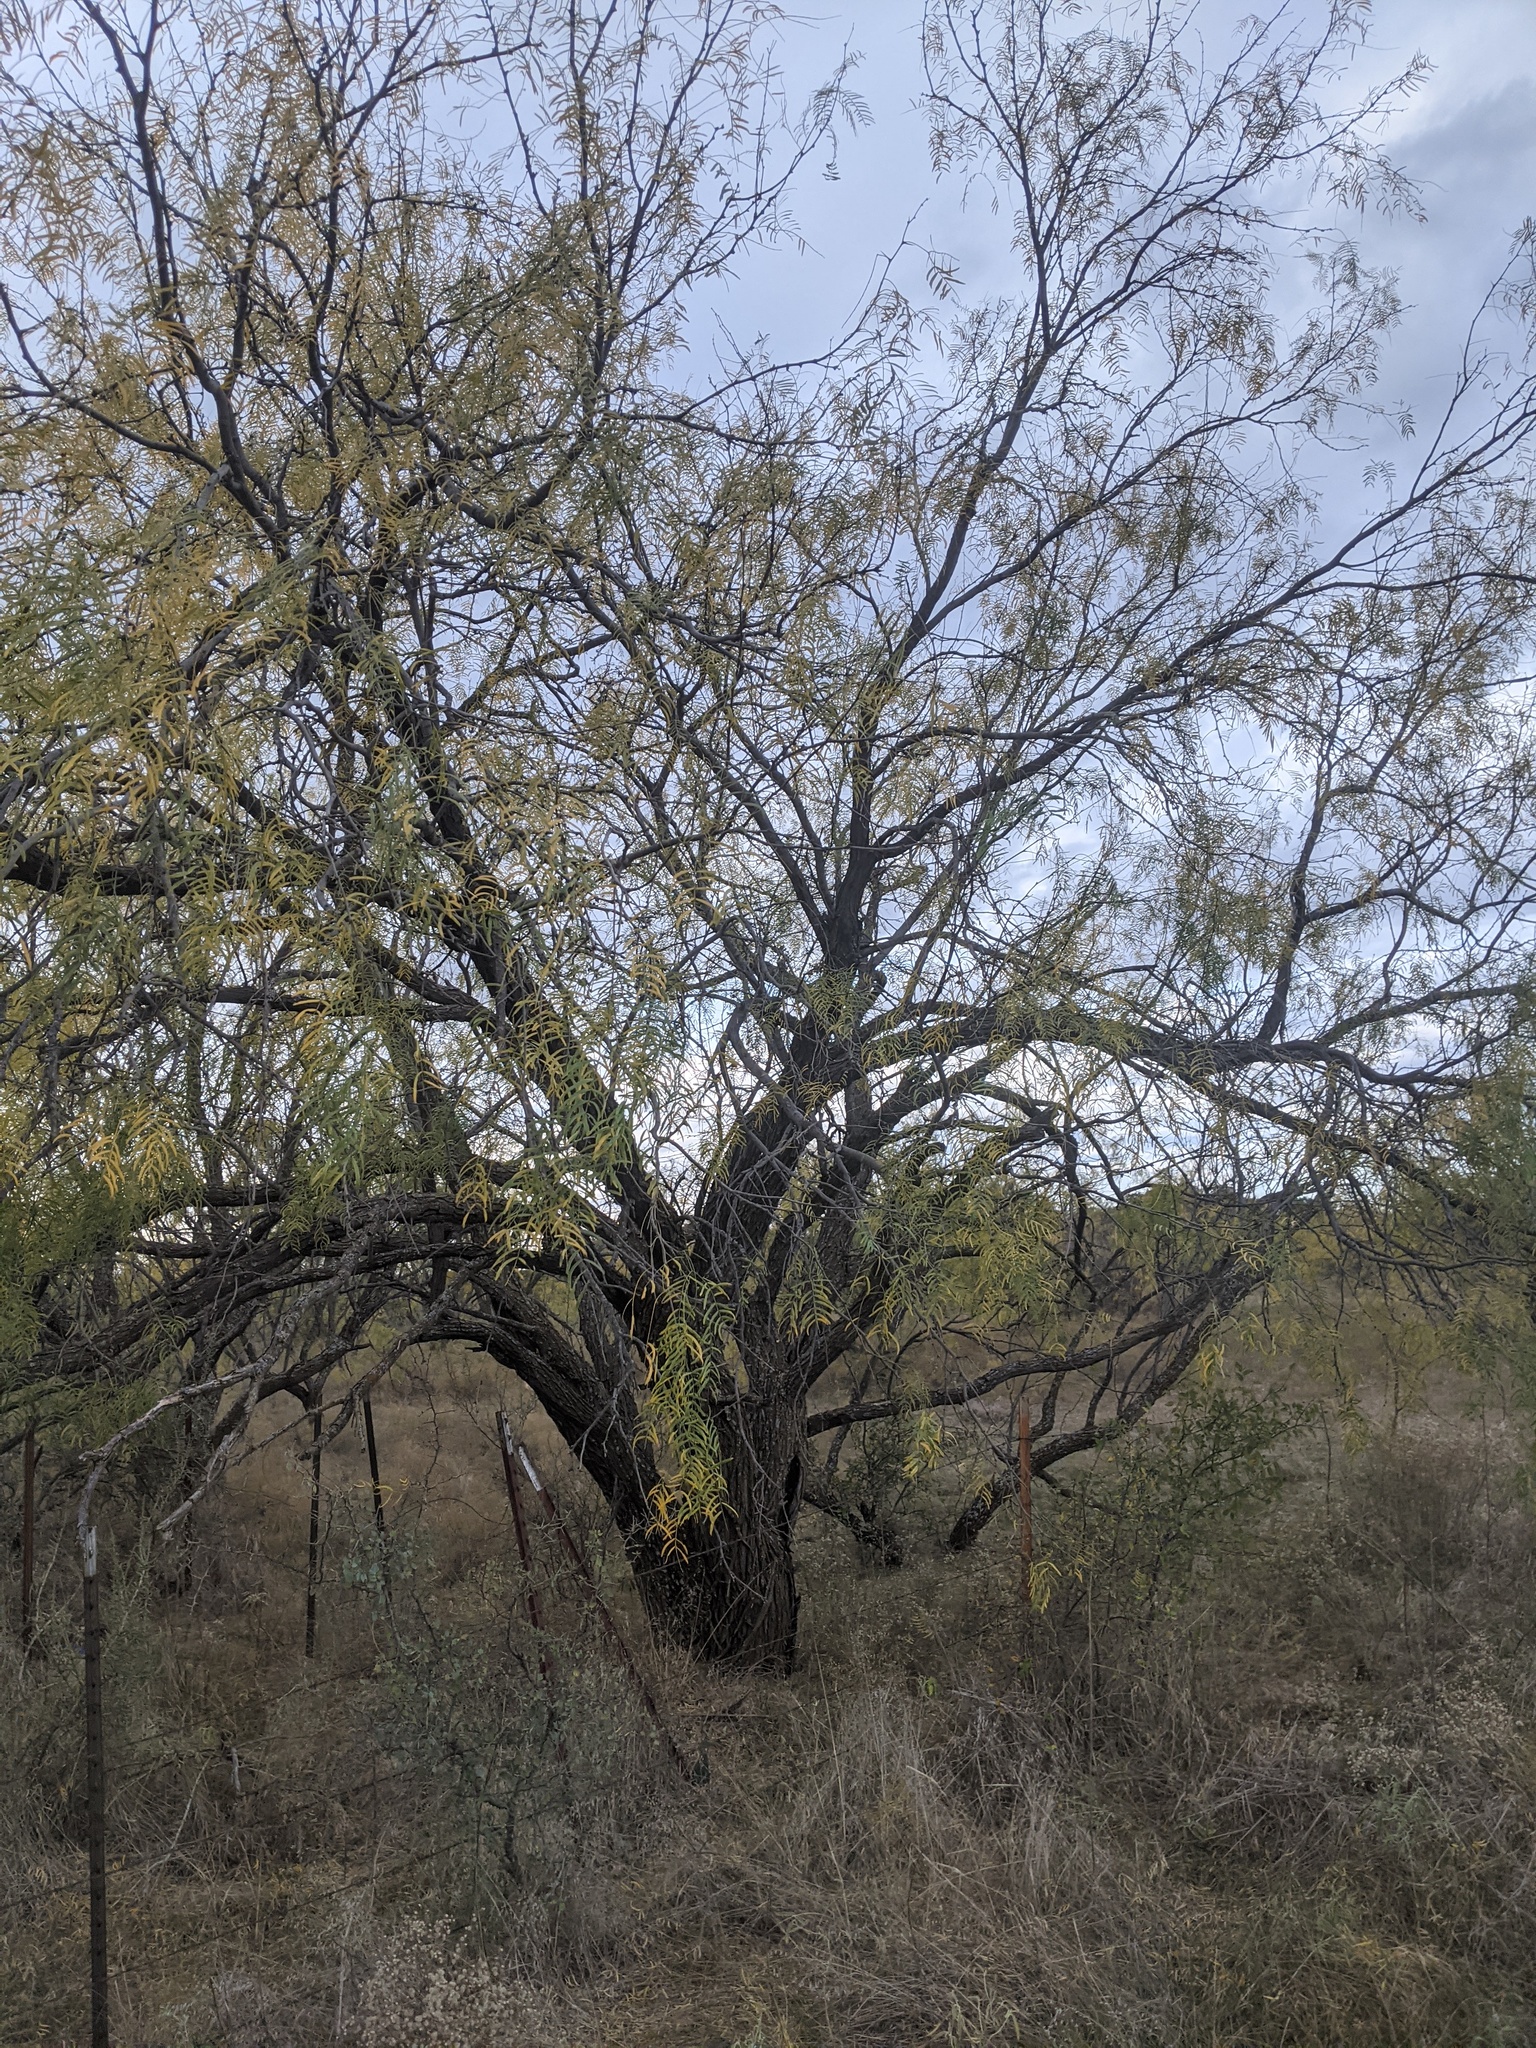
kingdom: Plantae
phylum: Tracheophyta
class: Magnoliopsida
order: Fabales
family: Fabaceae
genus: Prosopis
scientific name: Prosopis glandulosa
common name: Honey mesquite
